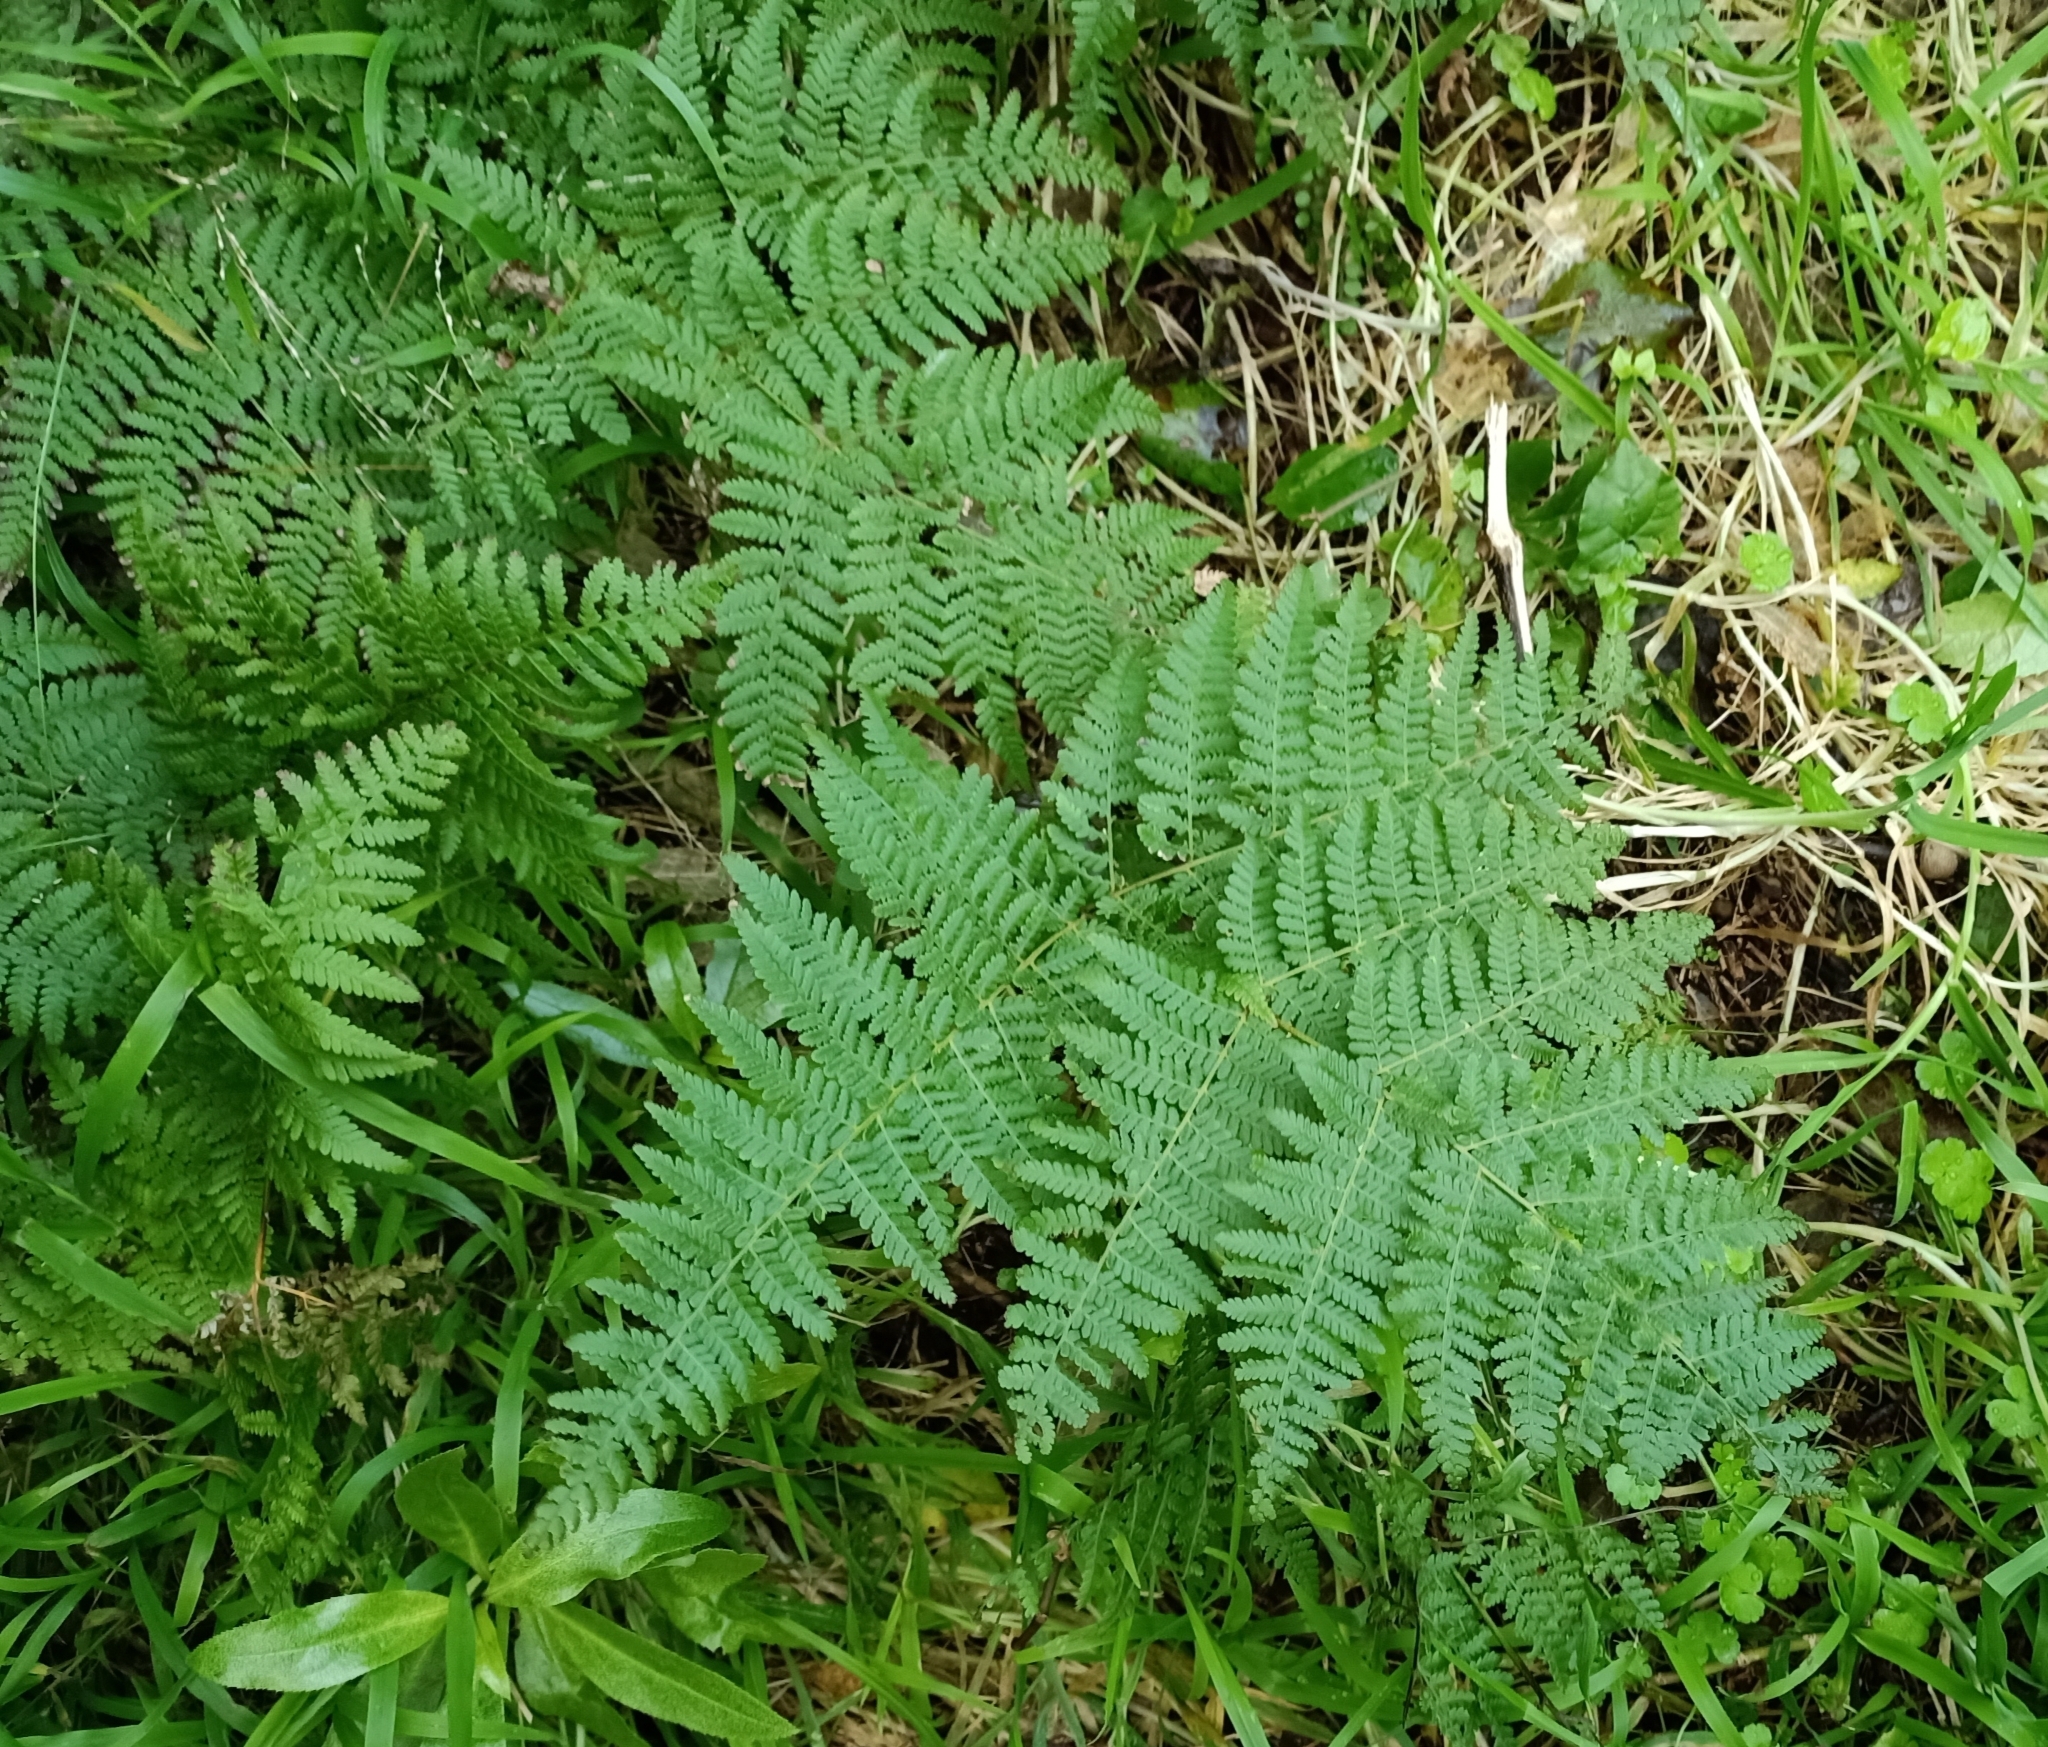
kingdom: Plantae
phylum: Tracheophyta
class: Polypodiopsida
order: Polypodiales
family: Dennstaedtiaceae
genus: Hypolepis
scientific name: Hypolepis ambigua
